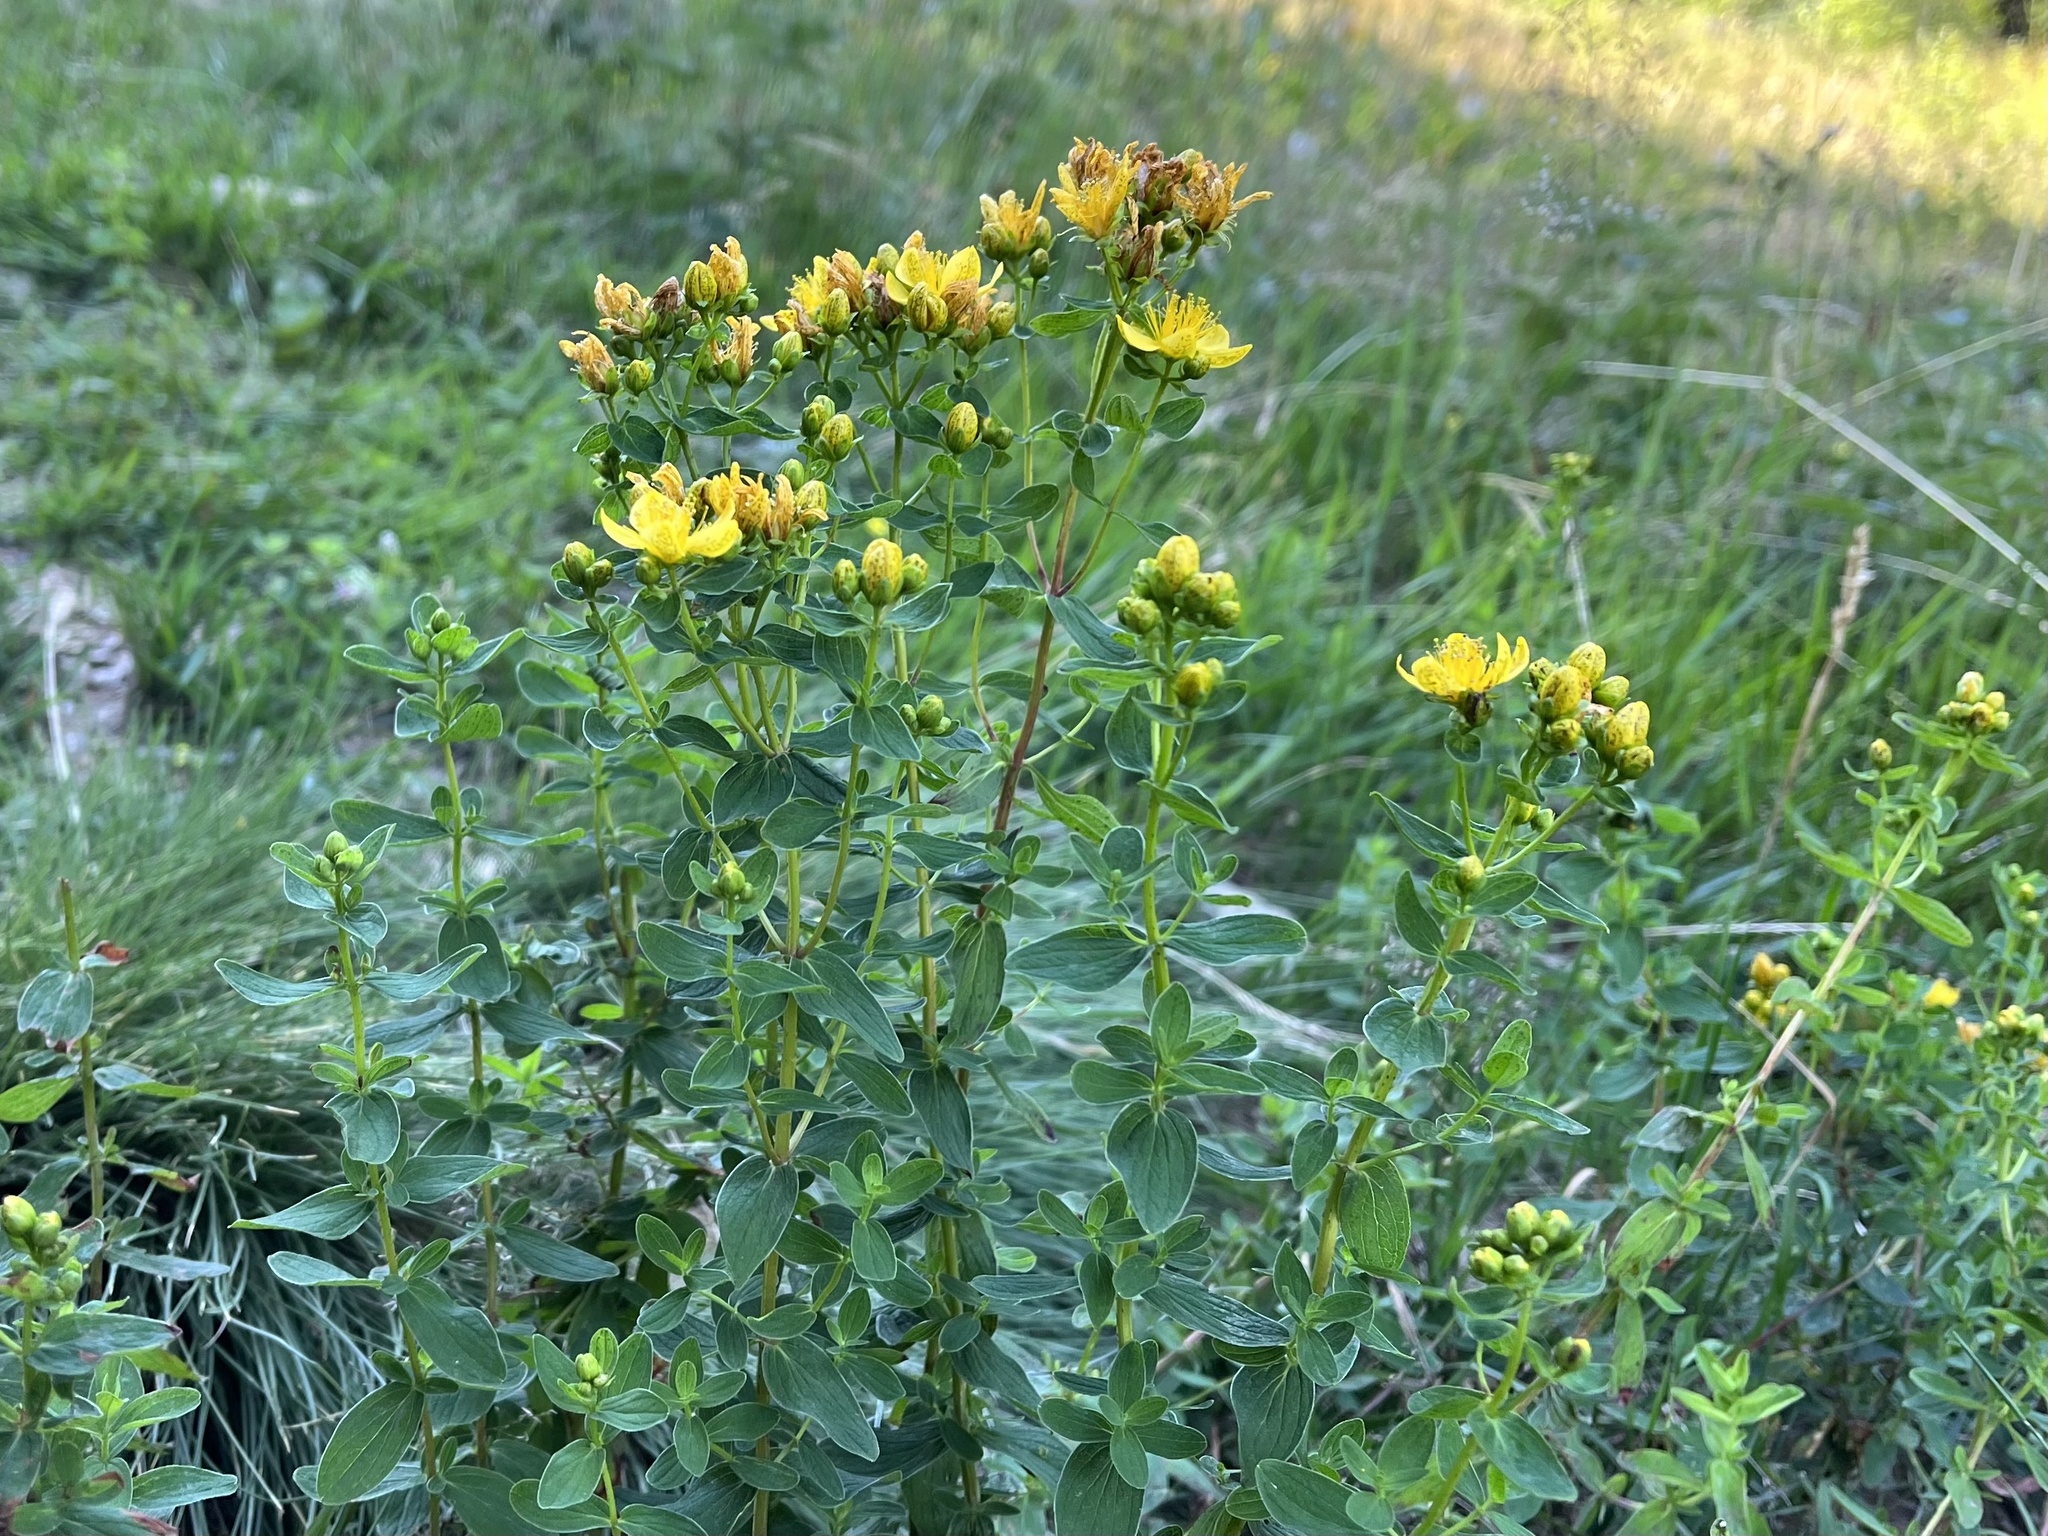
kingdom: Plantae
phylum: Tracheophyta
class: Magnoliopsida
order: Malpighiales
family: Hypericaceae
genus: Hypericum
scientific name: Hypericum maculatum
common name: Imperforate st. john's-wort
